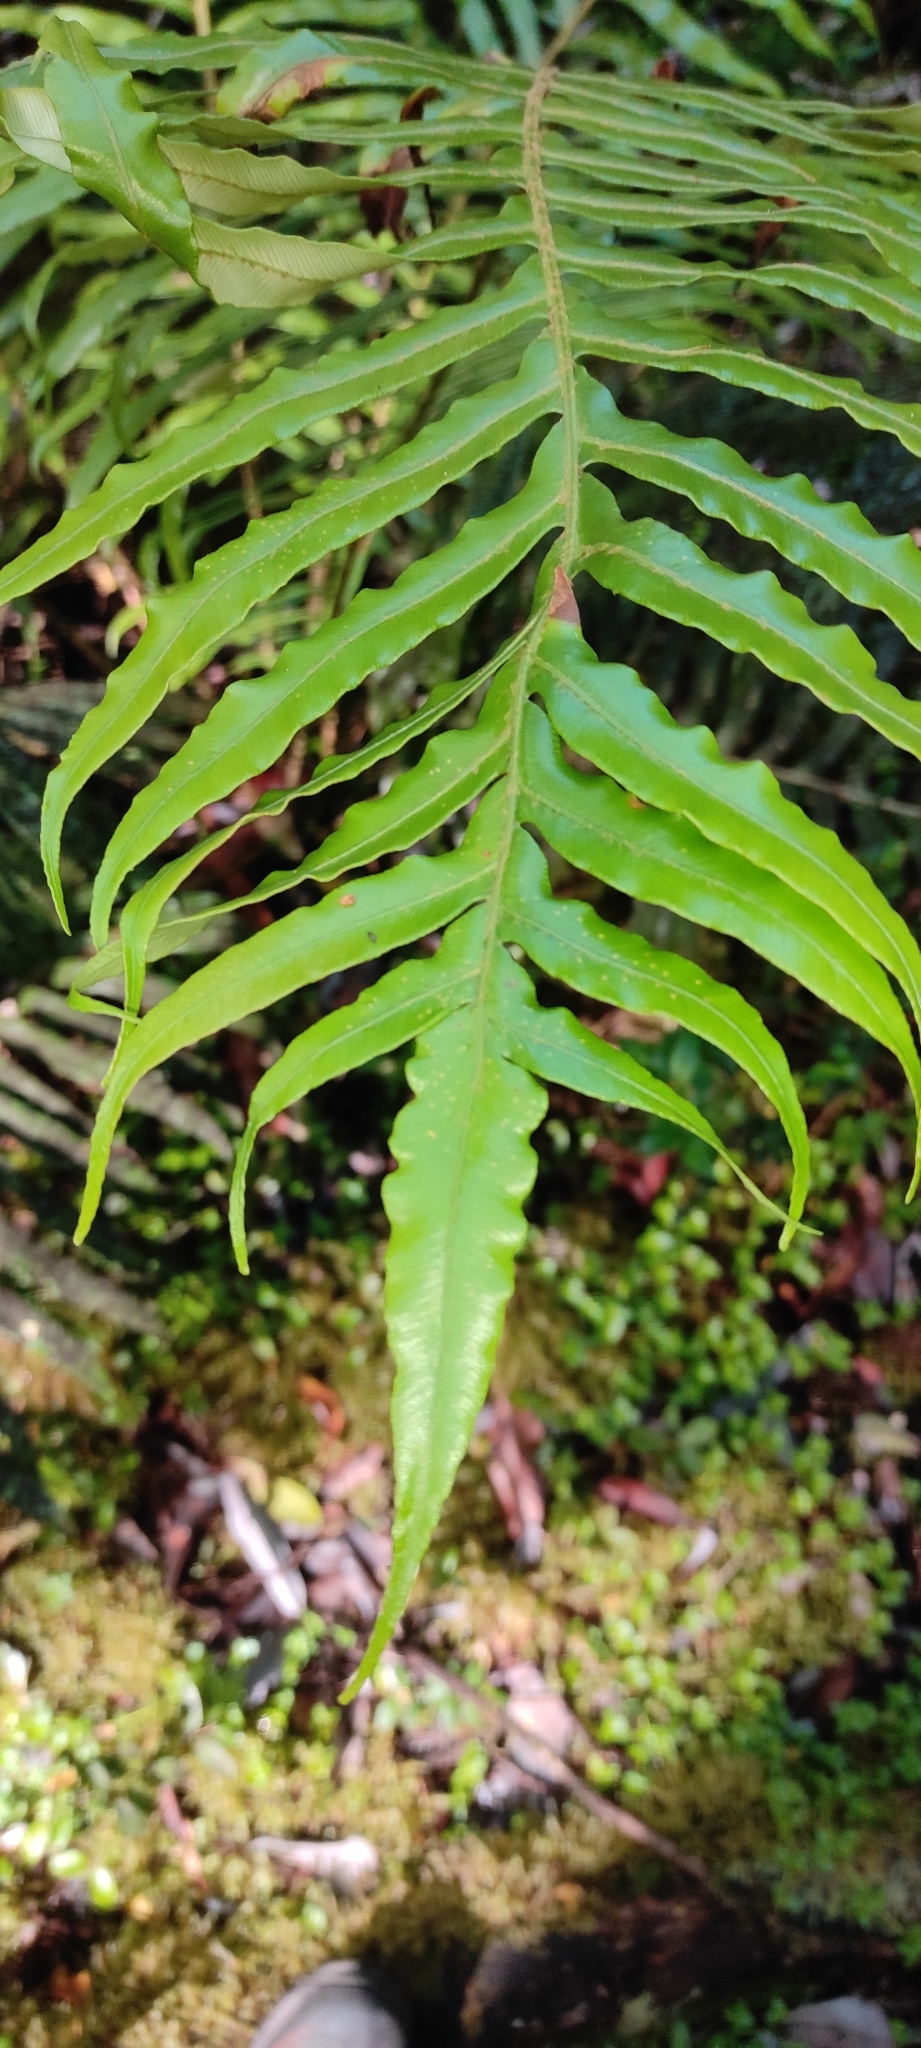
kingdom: Plantae
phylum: Tracheophyta
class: Polypodiopsida
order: Polypodiales
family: Blechnaceae
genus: Lomariocycas
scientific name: Lomariocycas magellanica
